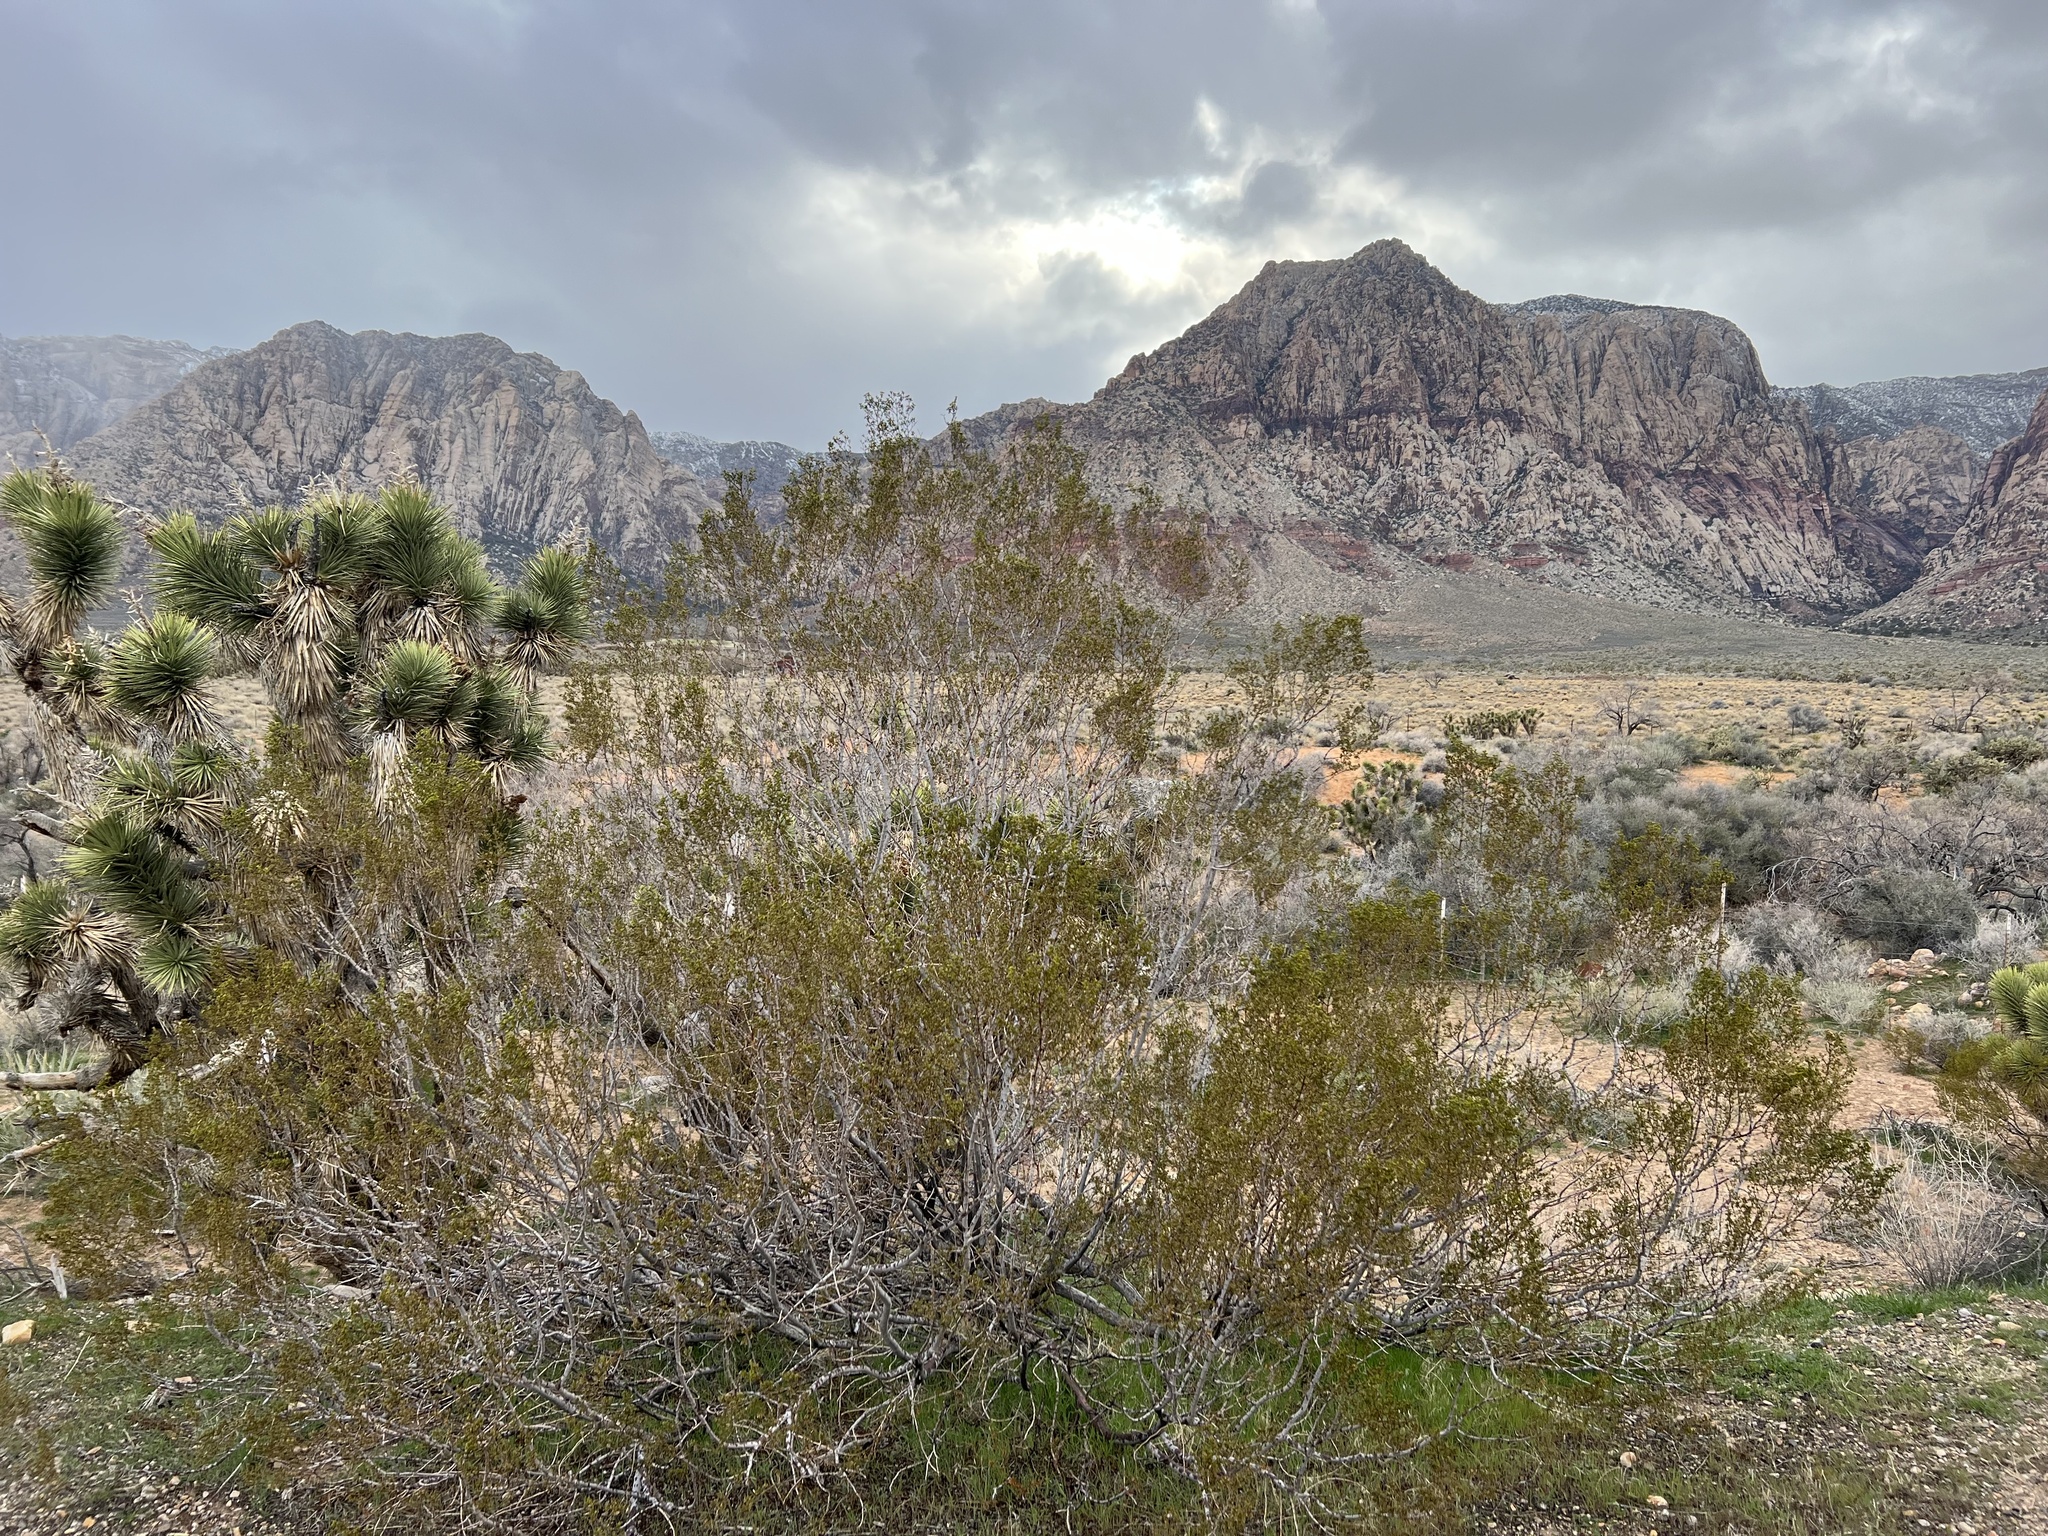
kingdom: Plantae
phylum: Tracheophyta
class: Magnoliopsida
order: Zygophyllales
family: Zygophyllaceae
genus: Larrea
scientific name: Larrea tridentata
